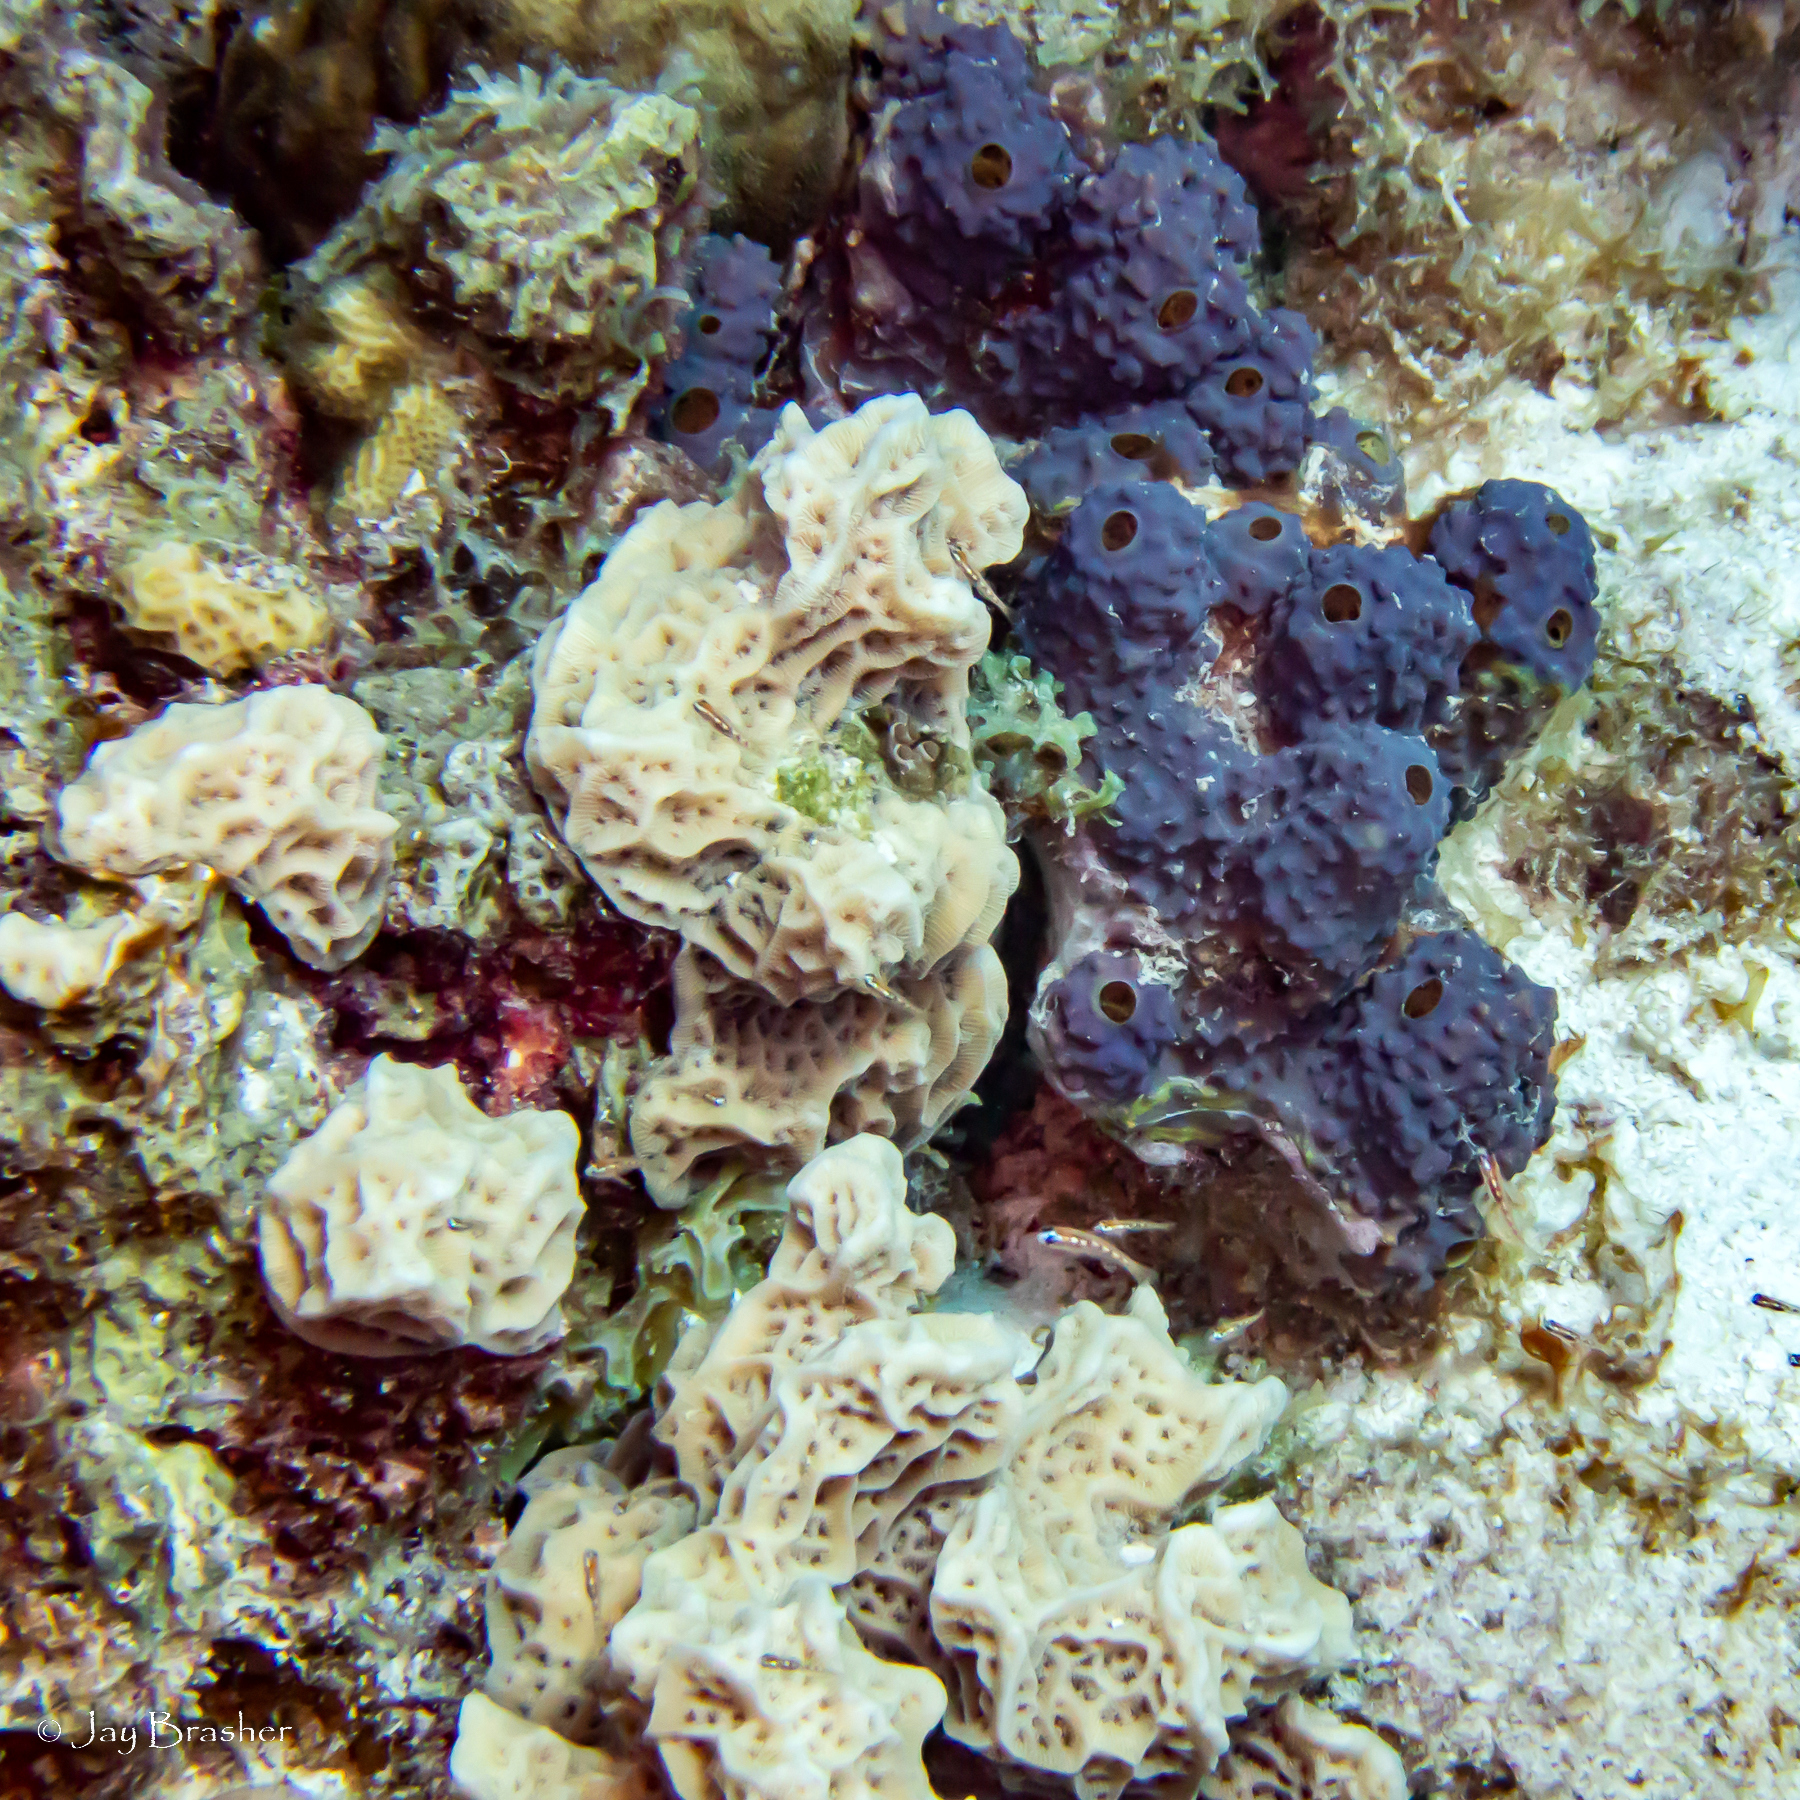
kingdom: Animalia
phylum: Porifera
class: Demospongiae
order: Verongiida
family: Aplysinidae
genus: Aiolochroia
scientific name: Aiolochroia crassa
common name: Branching tube sponge
